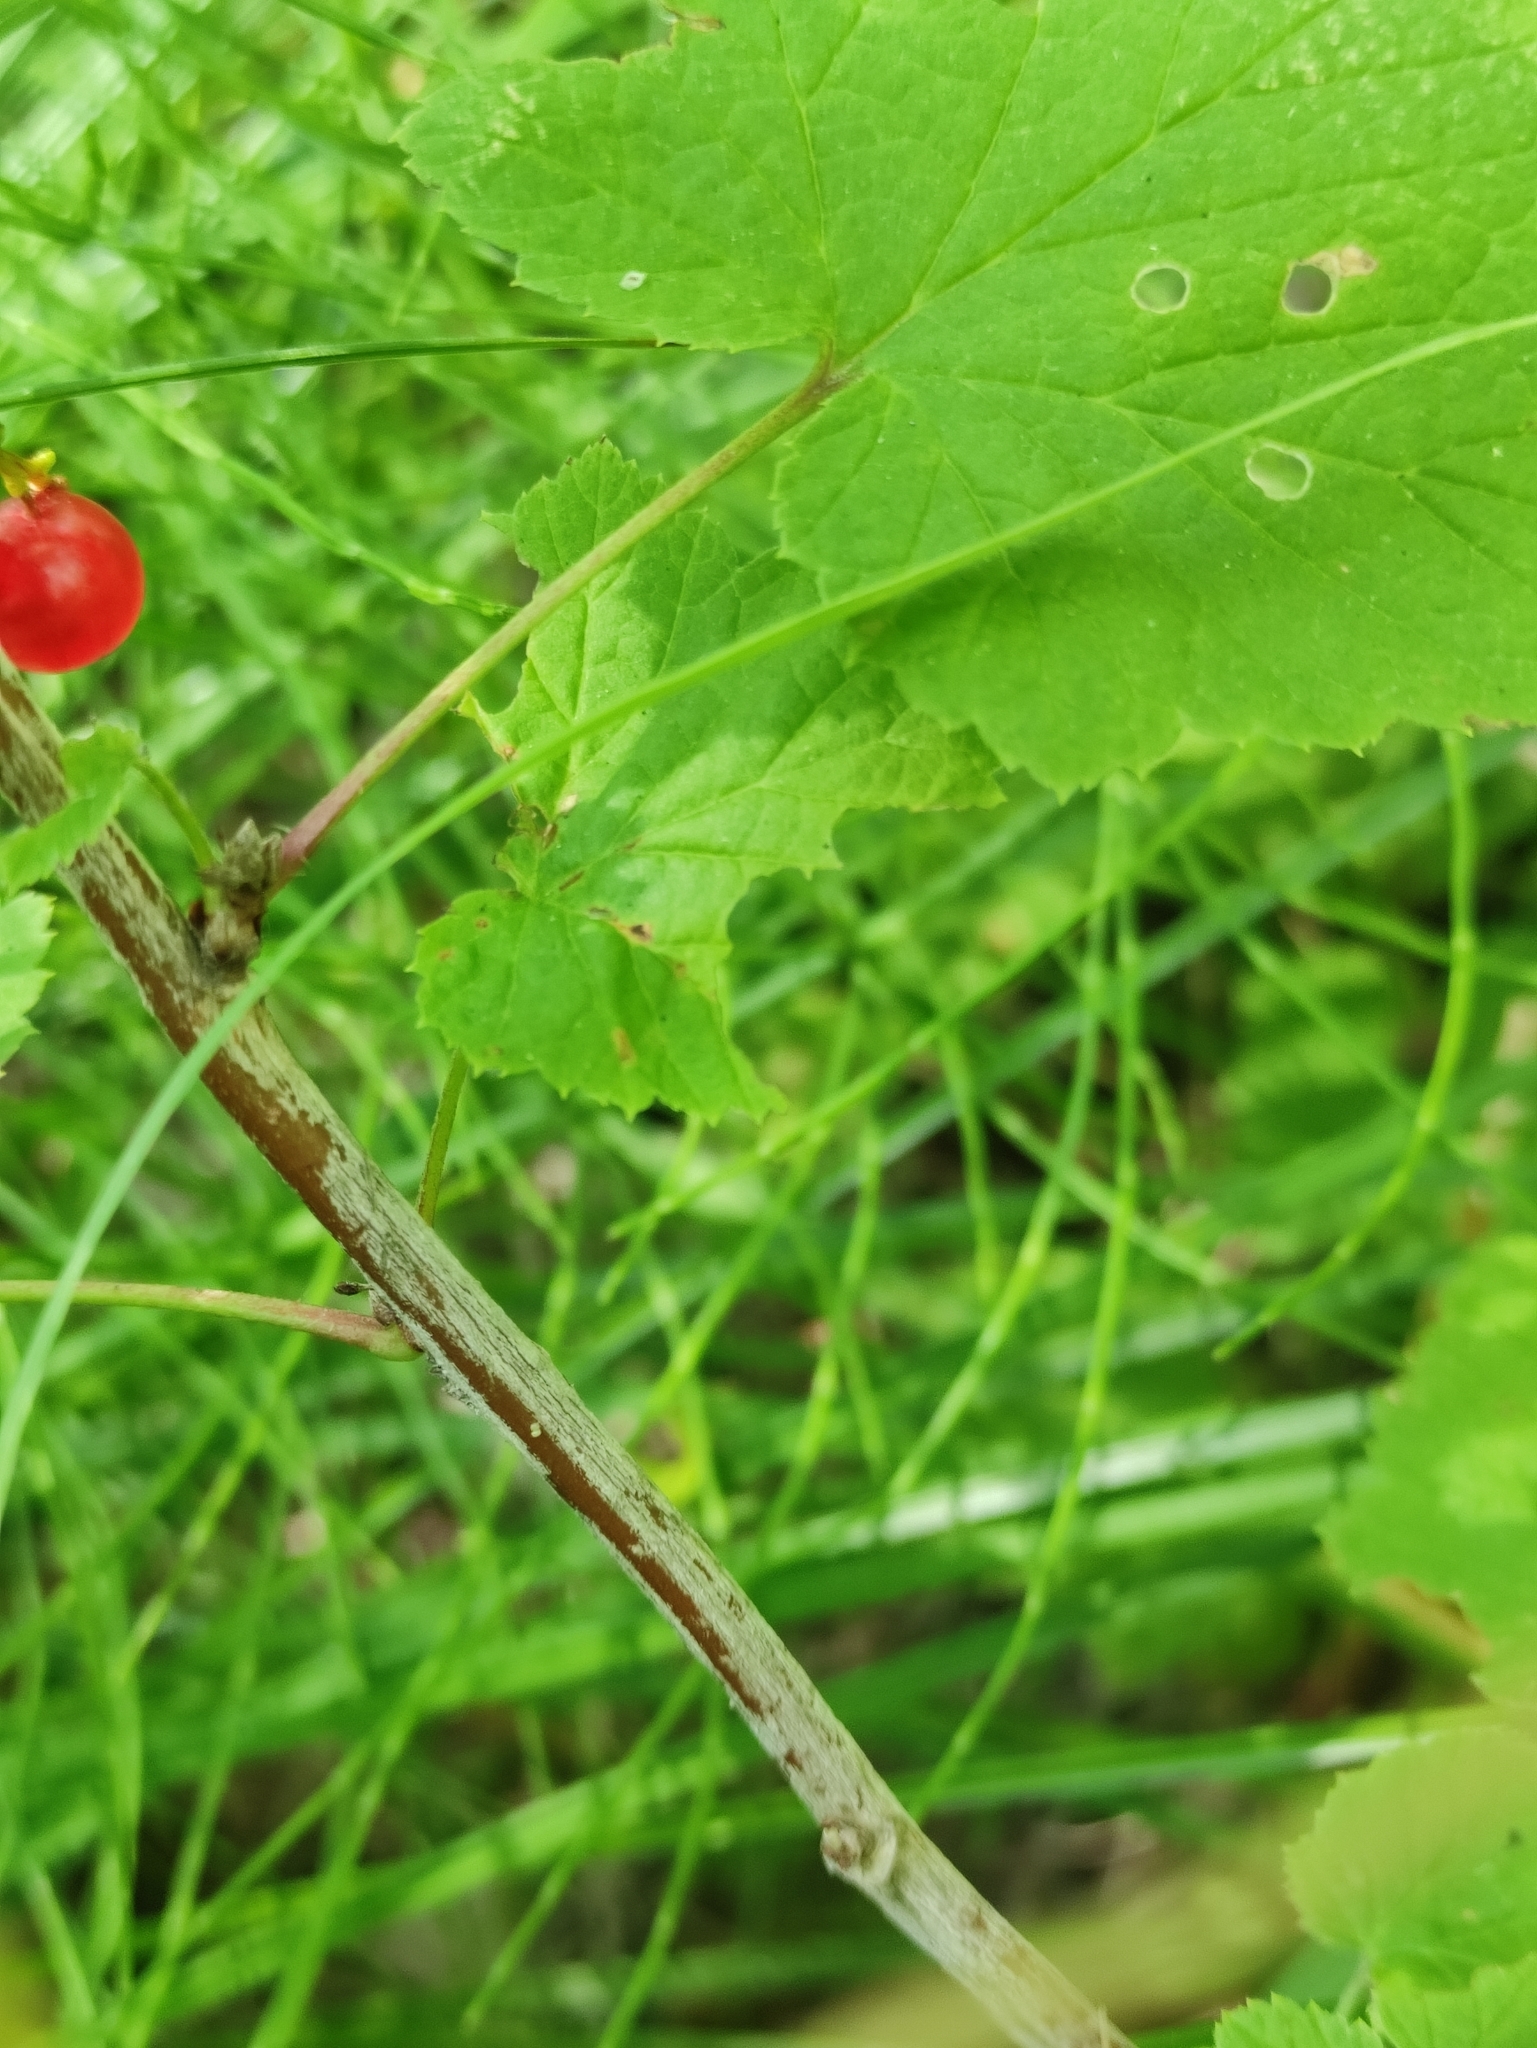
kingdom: Plantae
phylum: Tracheophyta
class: Magnoliopsida
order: Saxifragales
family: Grossulariaceae
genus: Ribes
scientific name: Ribes spicatum
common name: Downy currant
